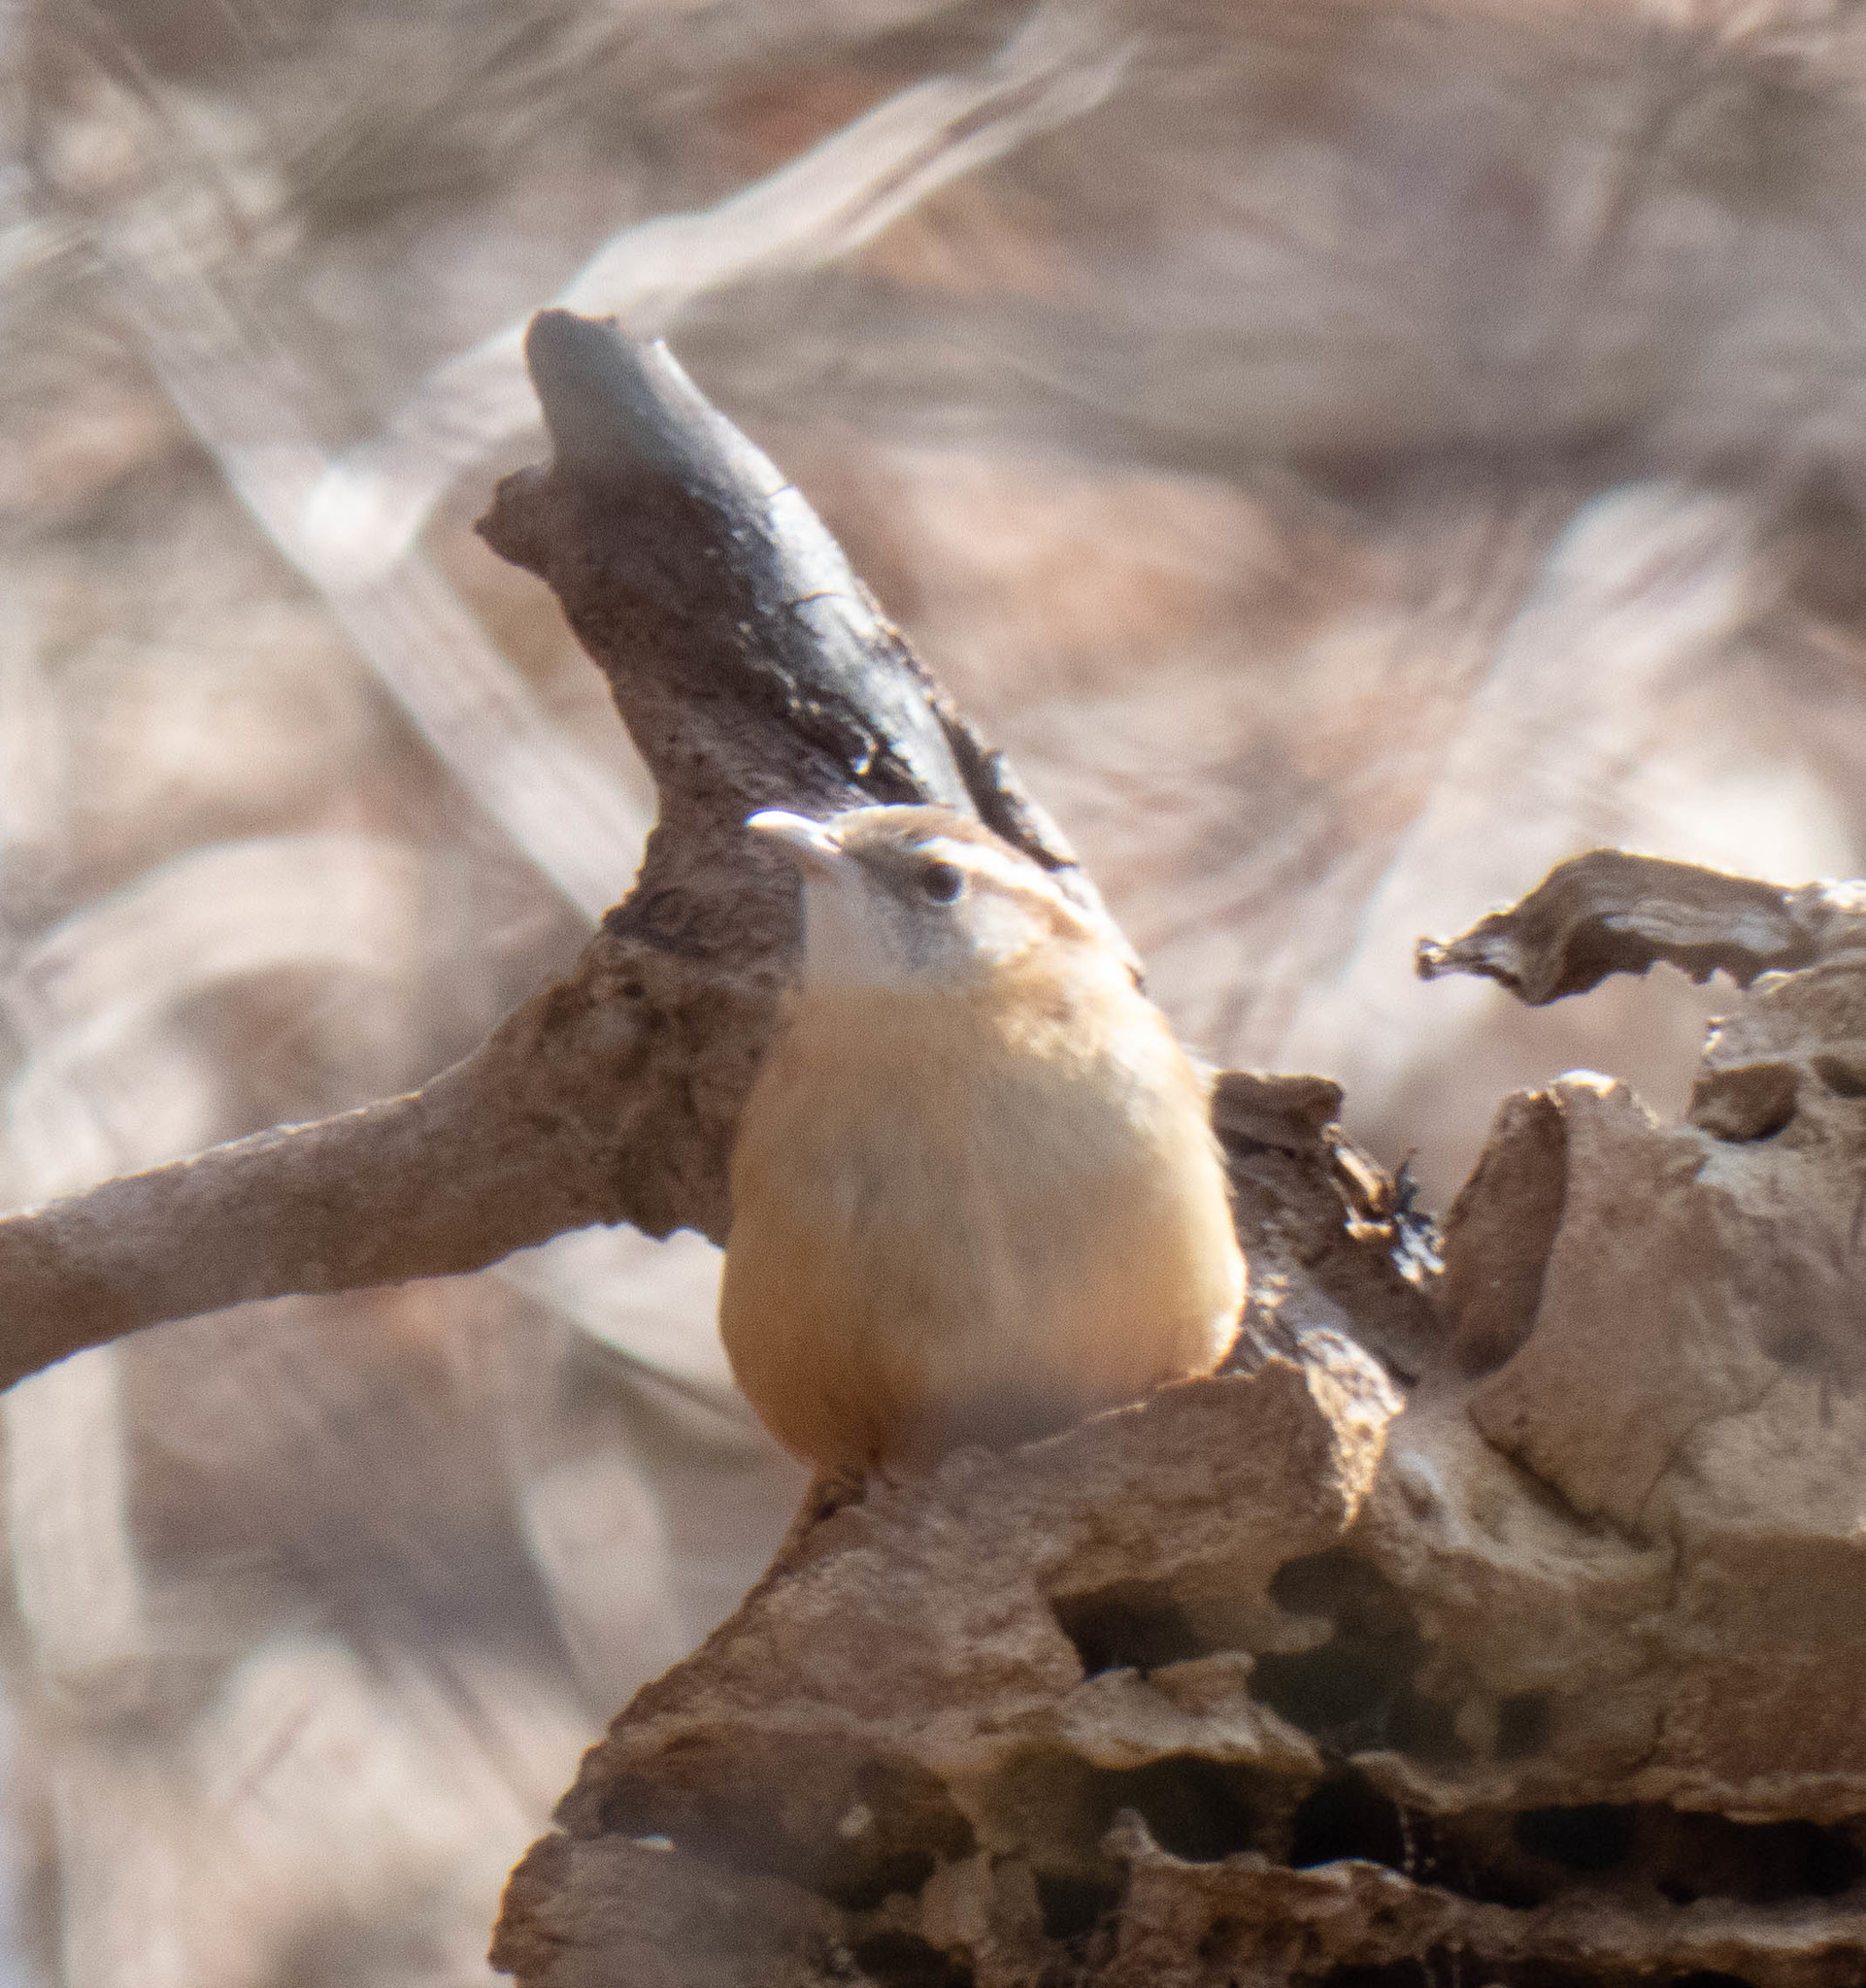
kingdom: Animalia
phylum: Chordata
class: Aves
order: Passeriformes
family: Troglodytidae
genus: Thryothorus
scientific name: Thryothorus ludovicianus
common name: Carolina wren
